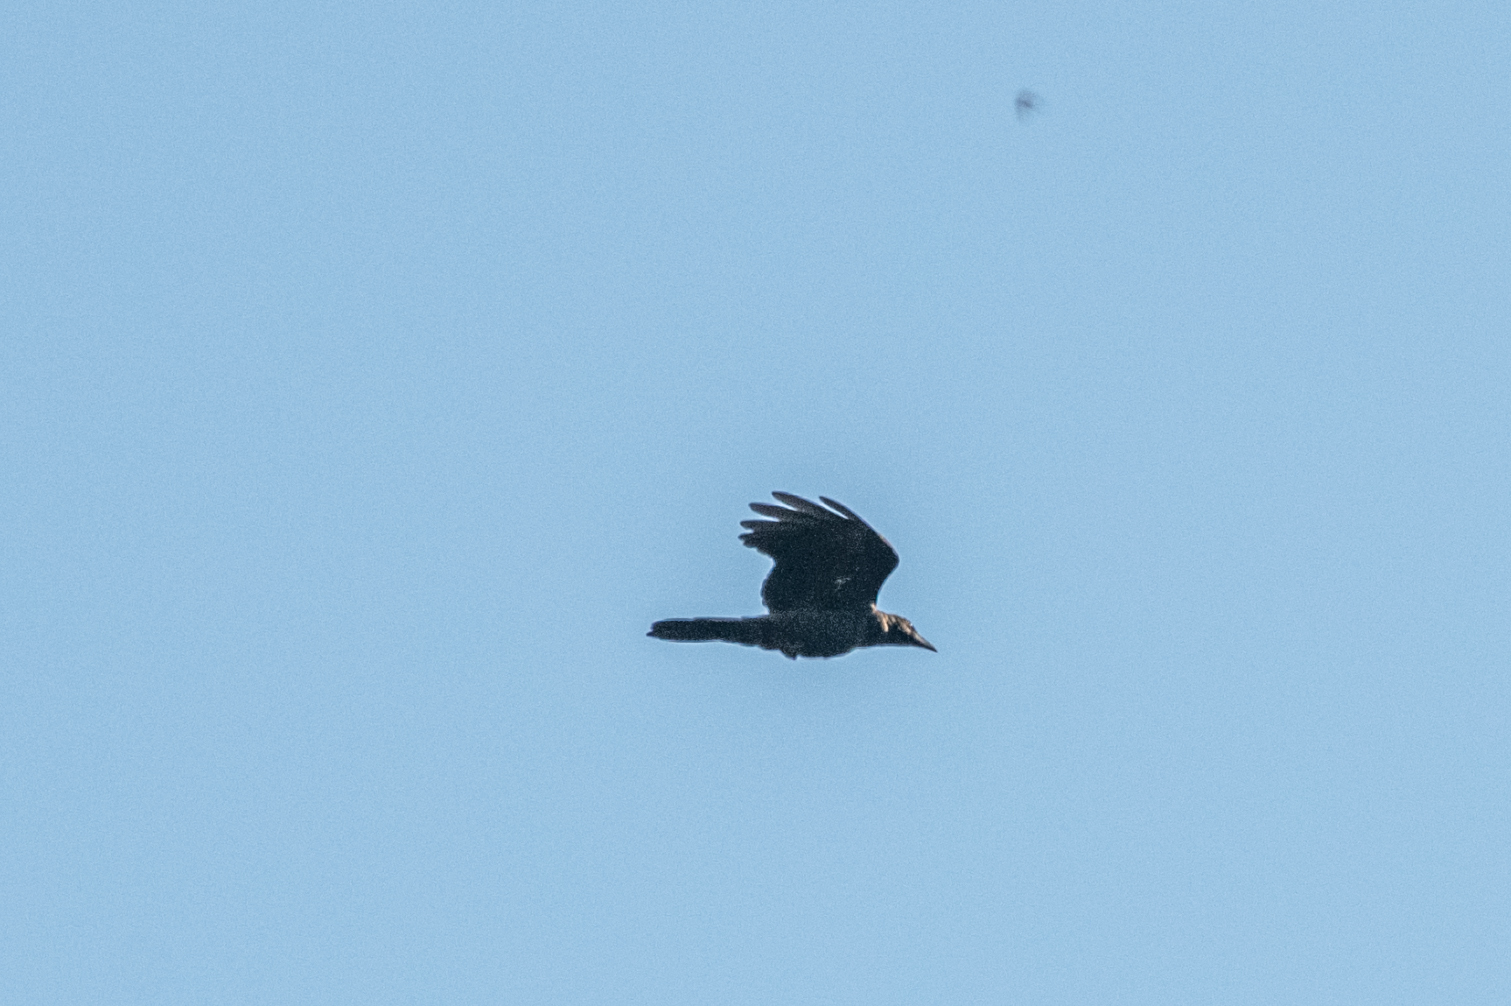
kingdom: Animalia
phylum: Chordata
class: Aves
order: Passeriformes
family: Corvidae
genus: Corvus
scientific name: Corvus corone
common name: Carrion crow
